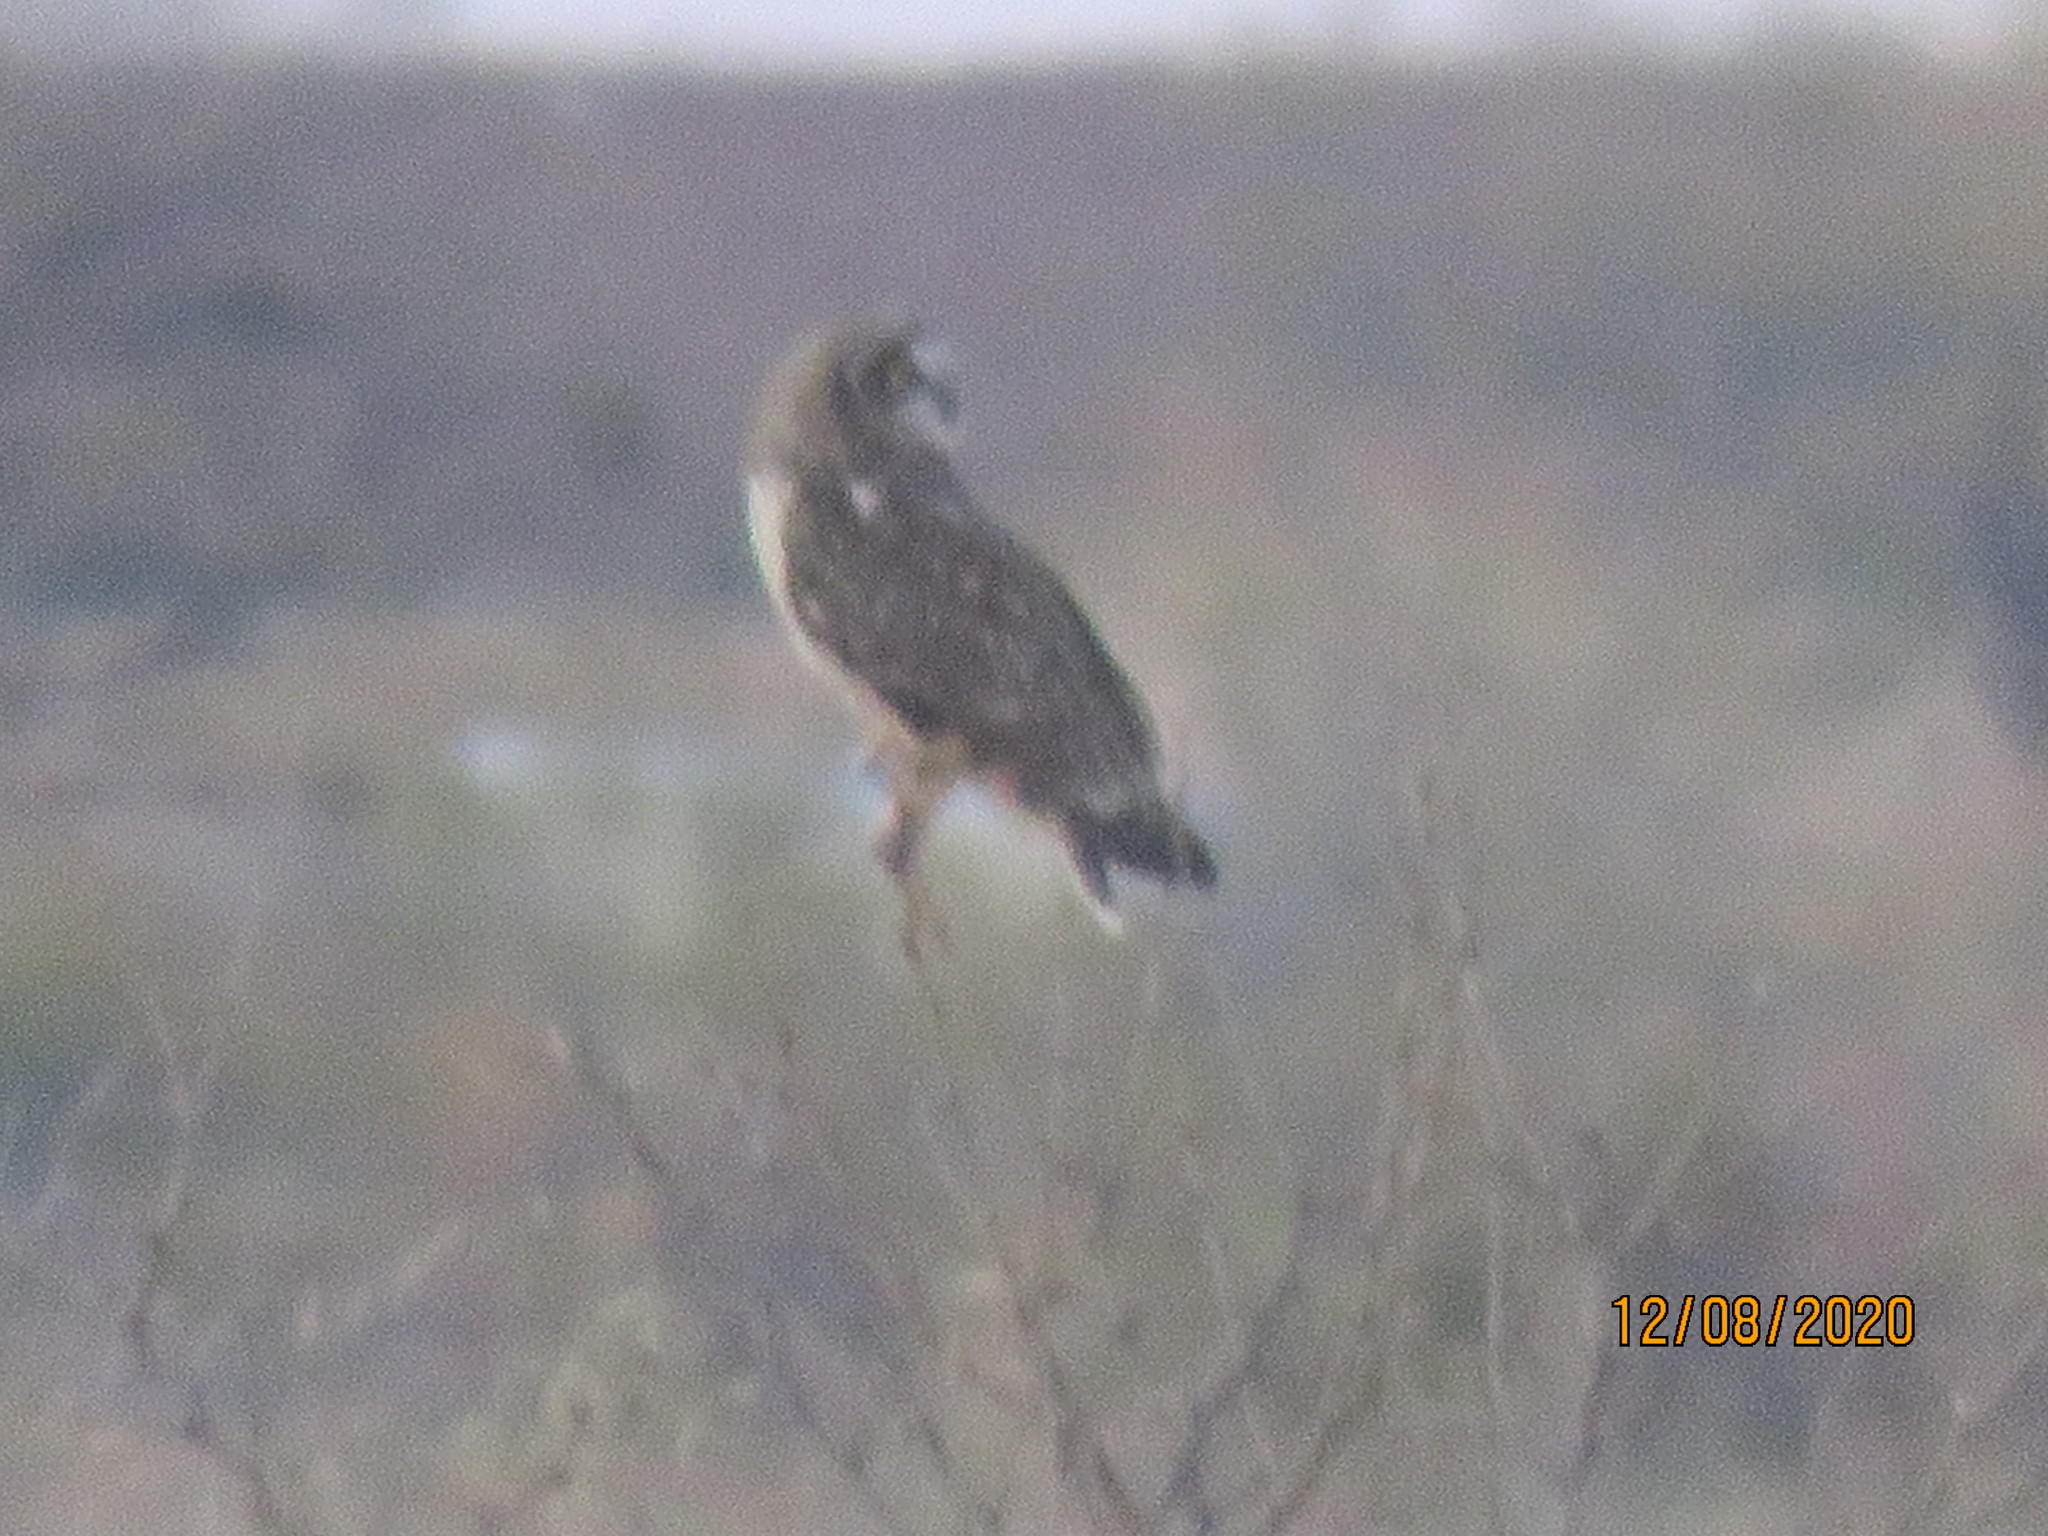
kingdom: Animalia
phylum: Chordata
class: Aves
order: Strigiformes
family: Strigidae
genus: Asio
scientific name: Asio flammeus
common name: Short-eared owl
